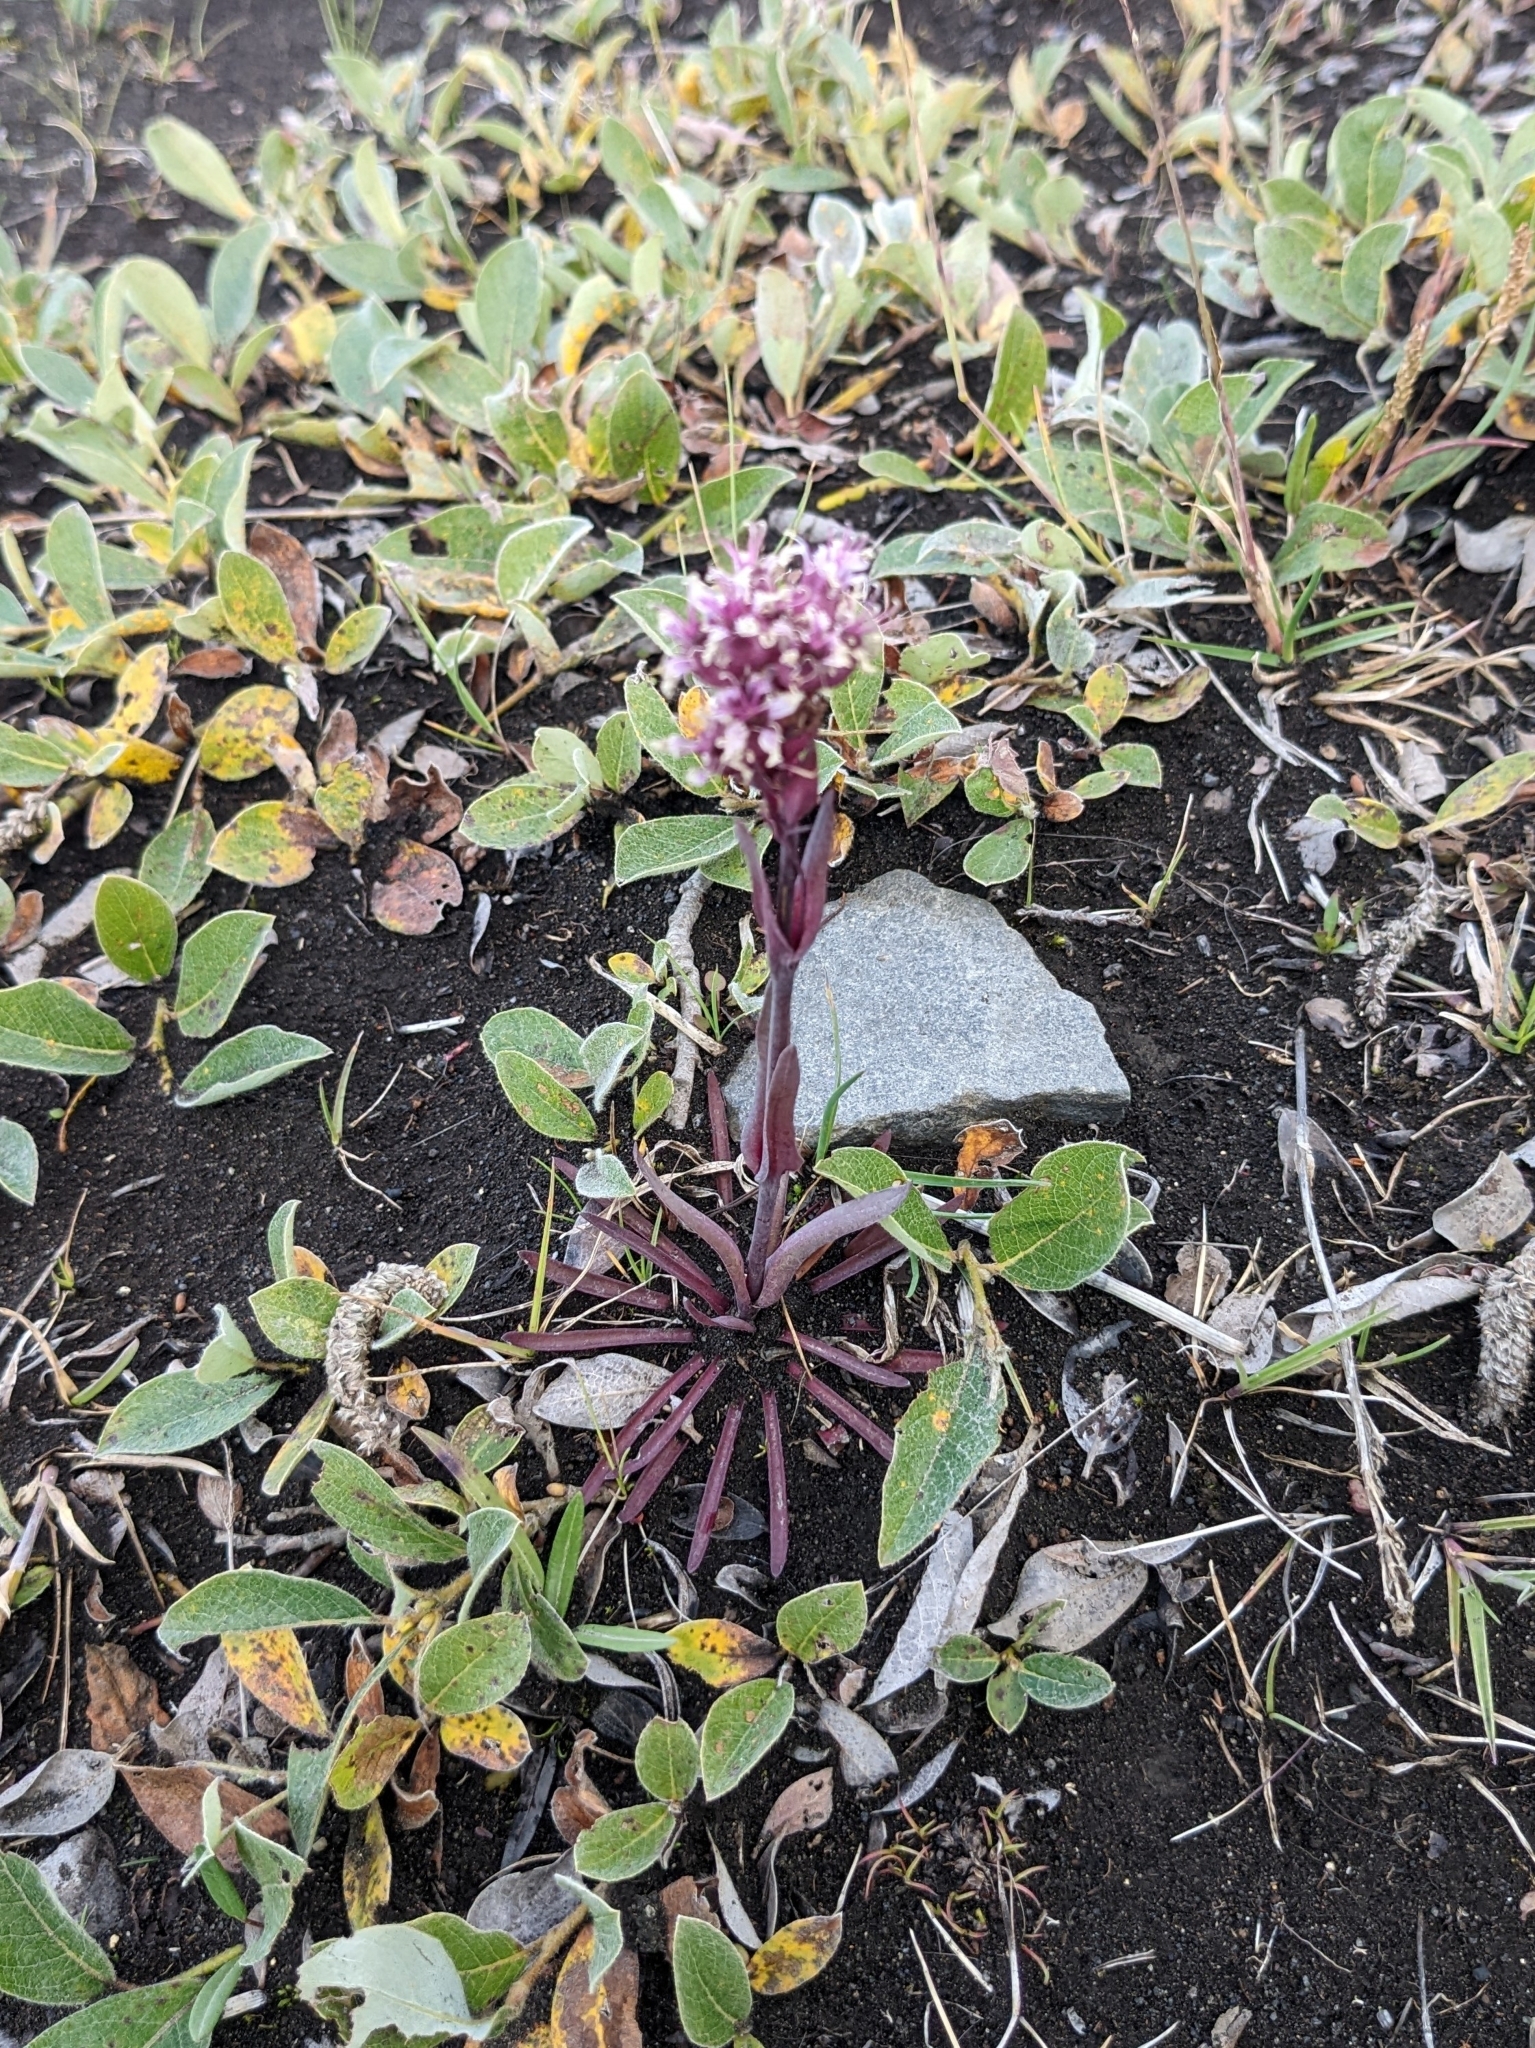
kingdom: Plantae
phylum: Tracheophyta
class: Magnoliopsida
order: Caryophyllales
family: Caryophyllaceae
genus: Viscaria
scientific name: Viscaria alpina
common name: Alpine campion
